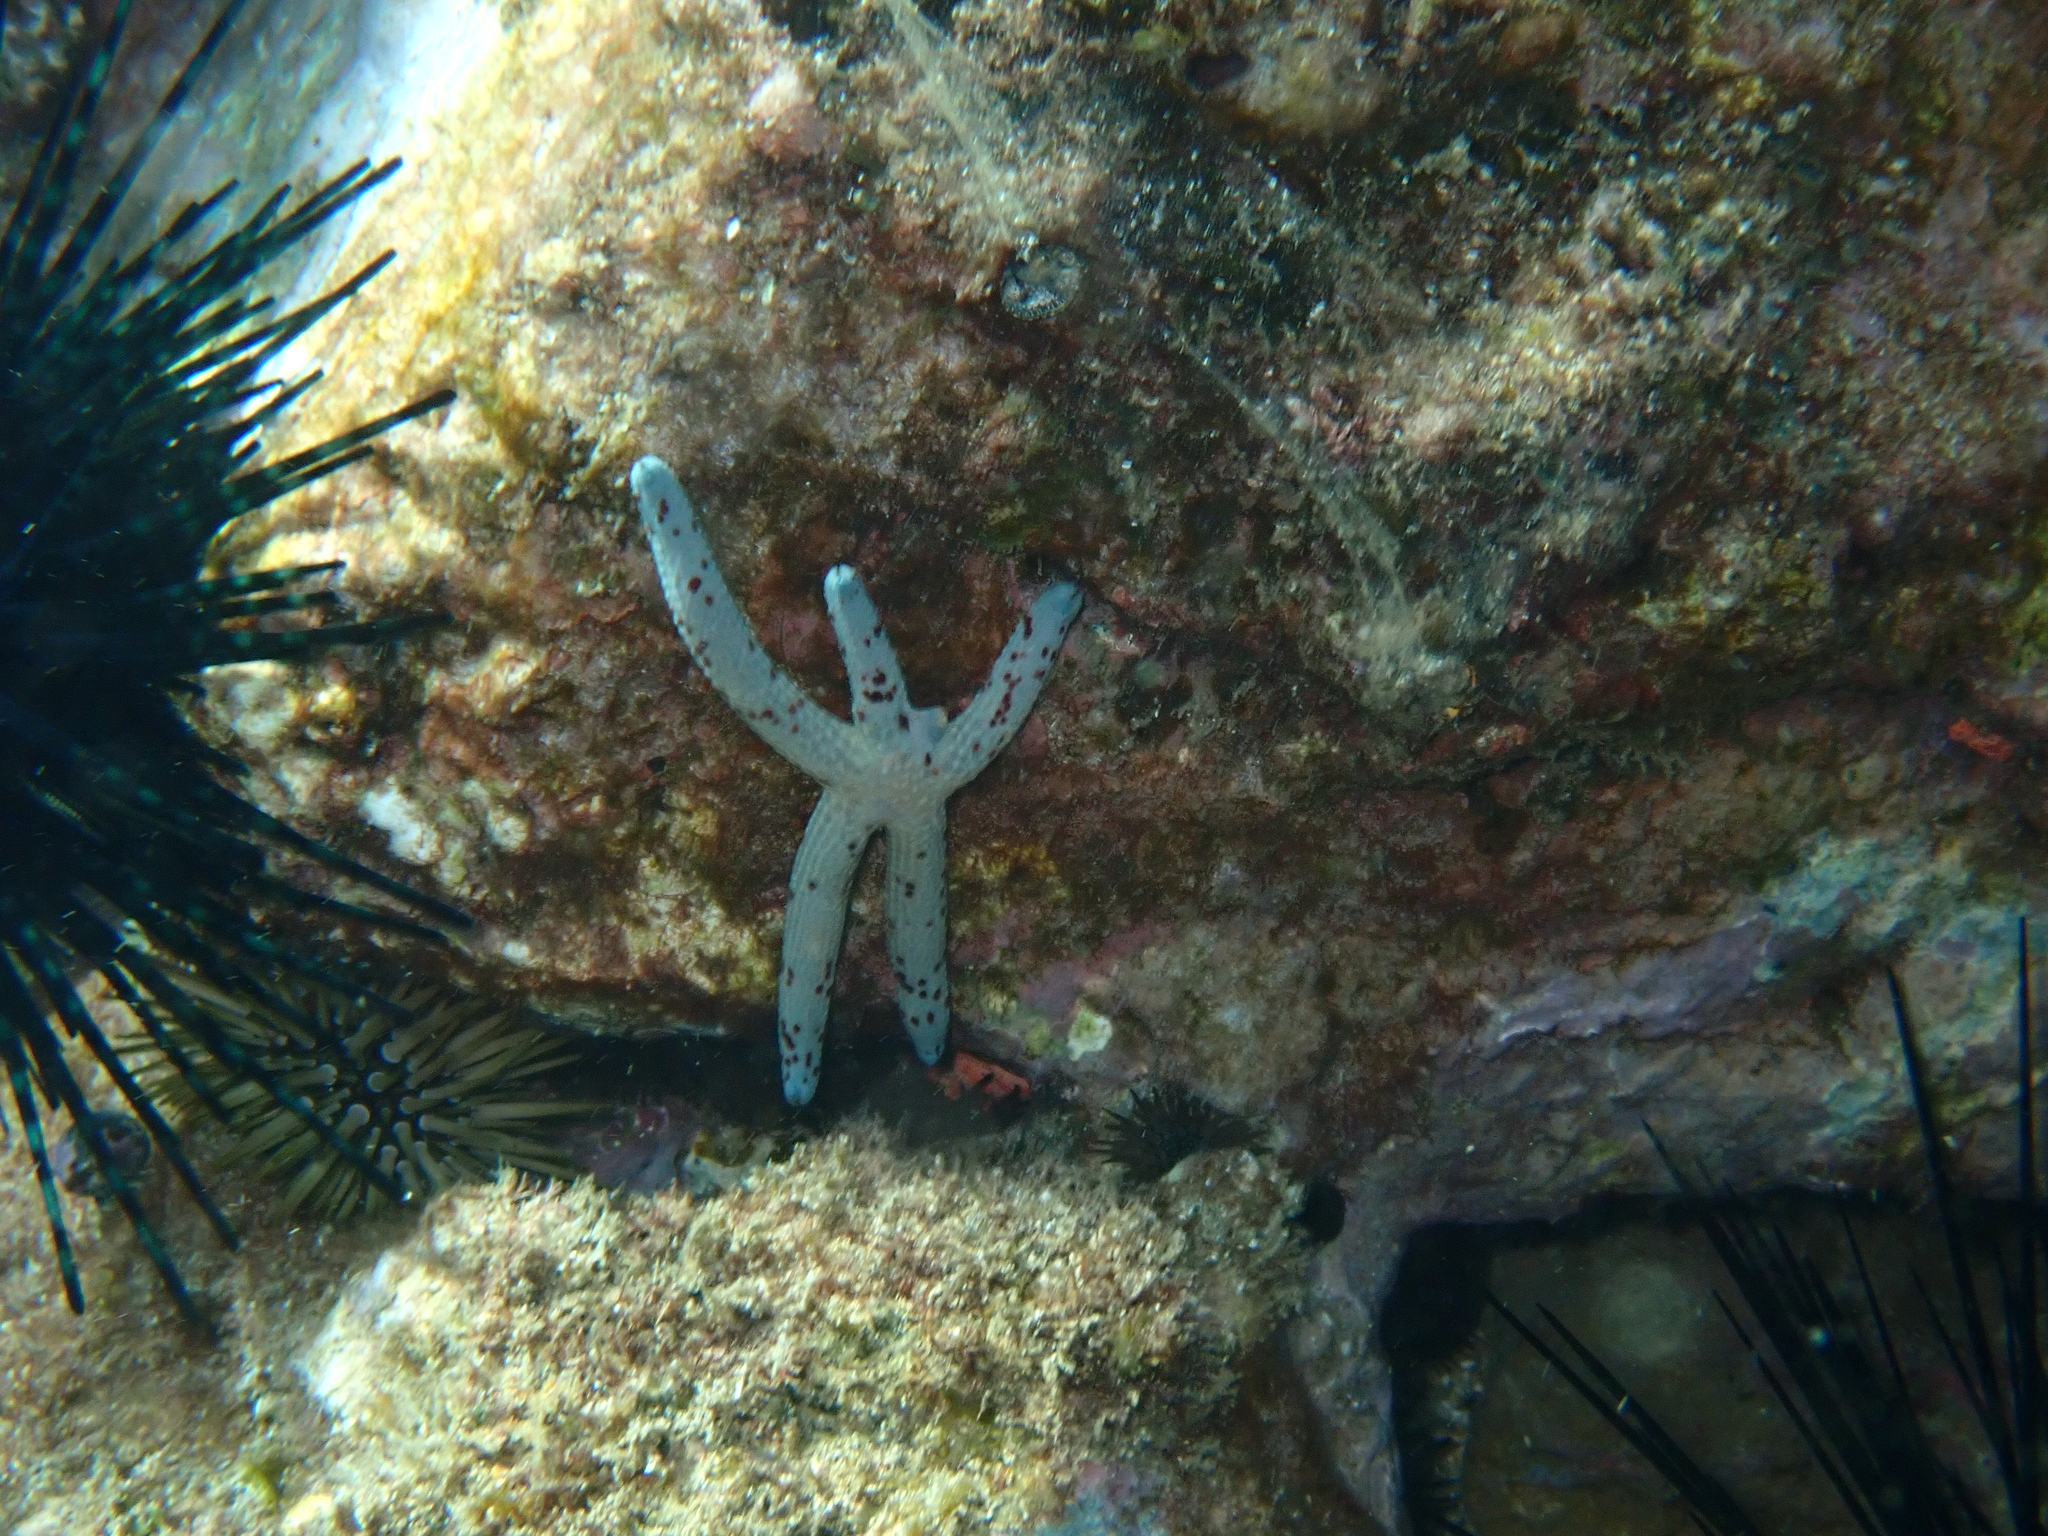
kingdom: Animalia
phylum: Echinodermata
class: Asteroidea
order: Valvatida
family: Ophidiasteridae
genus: Linckia
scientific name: Linckia multifora
